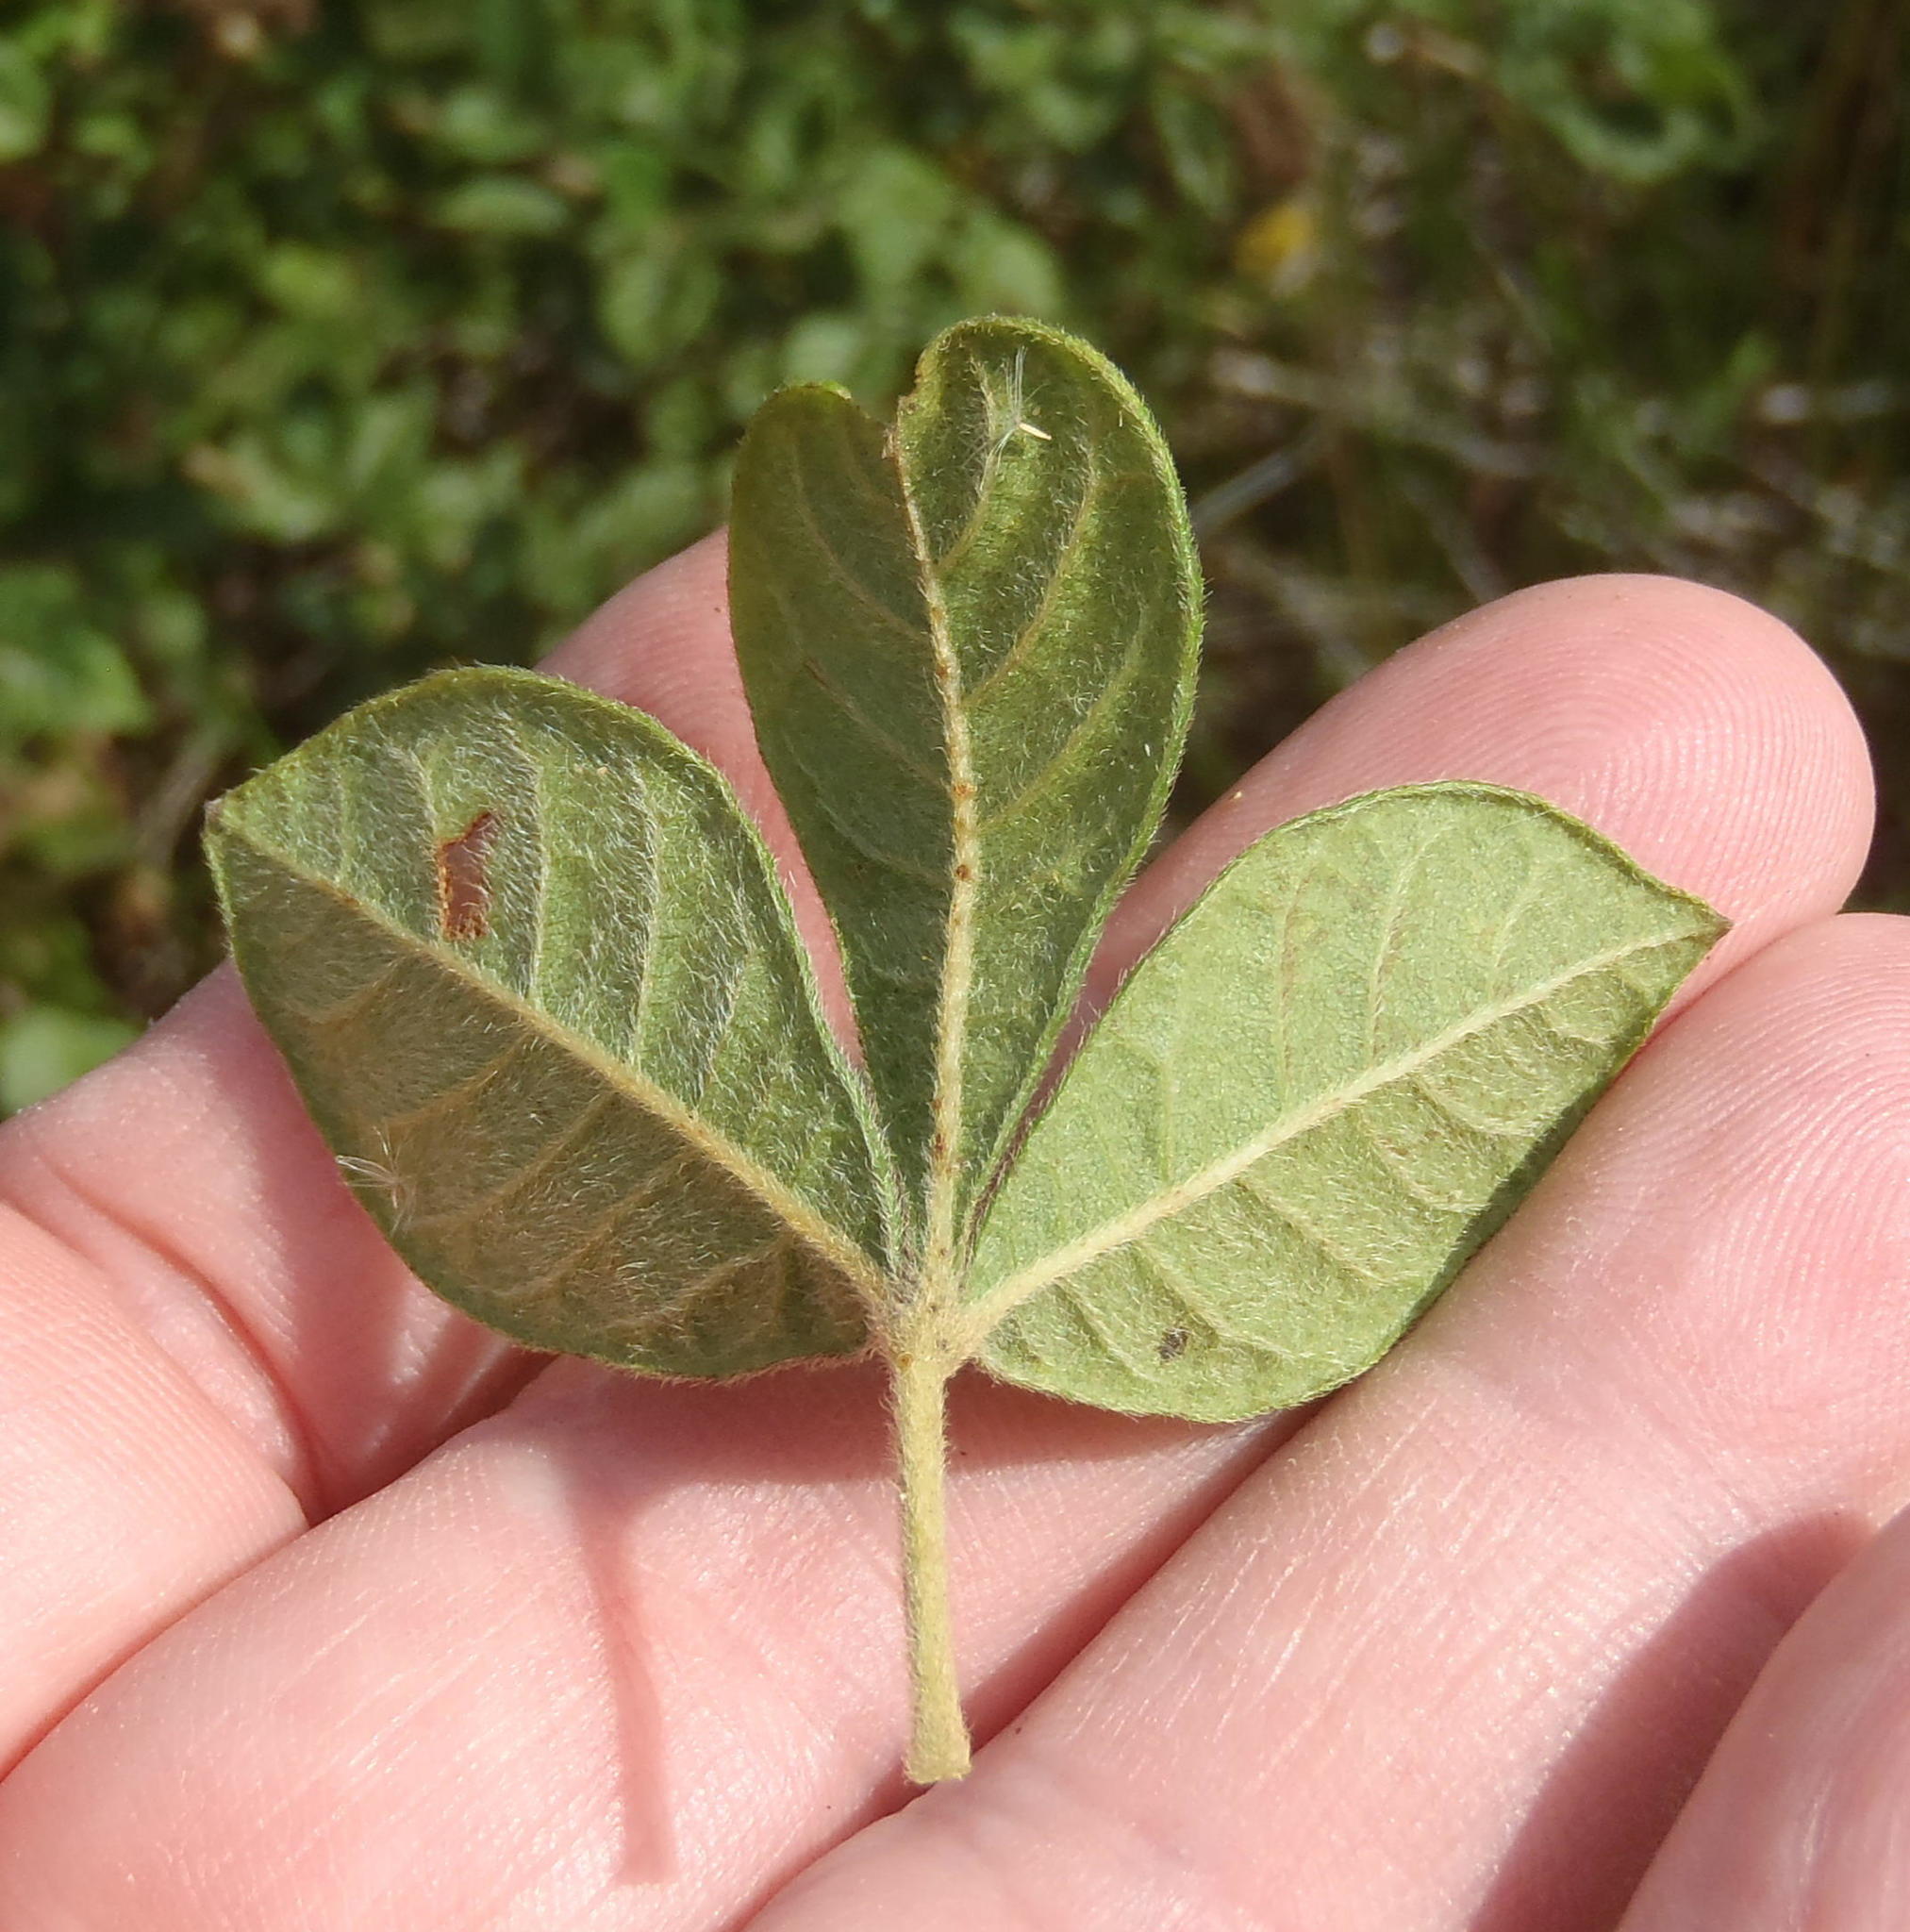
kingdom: Plantae
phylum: Tracheophyta
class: Magnoliopsida
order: Sapindales
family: Anacardiaceae
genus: Searsia
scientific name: Searsia pyroides
